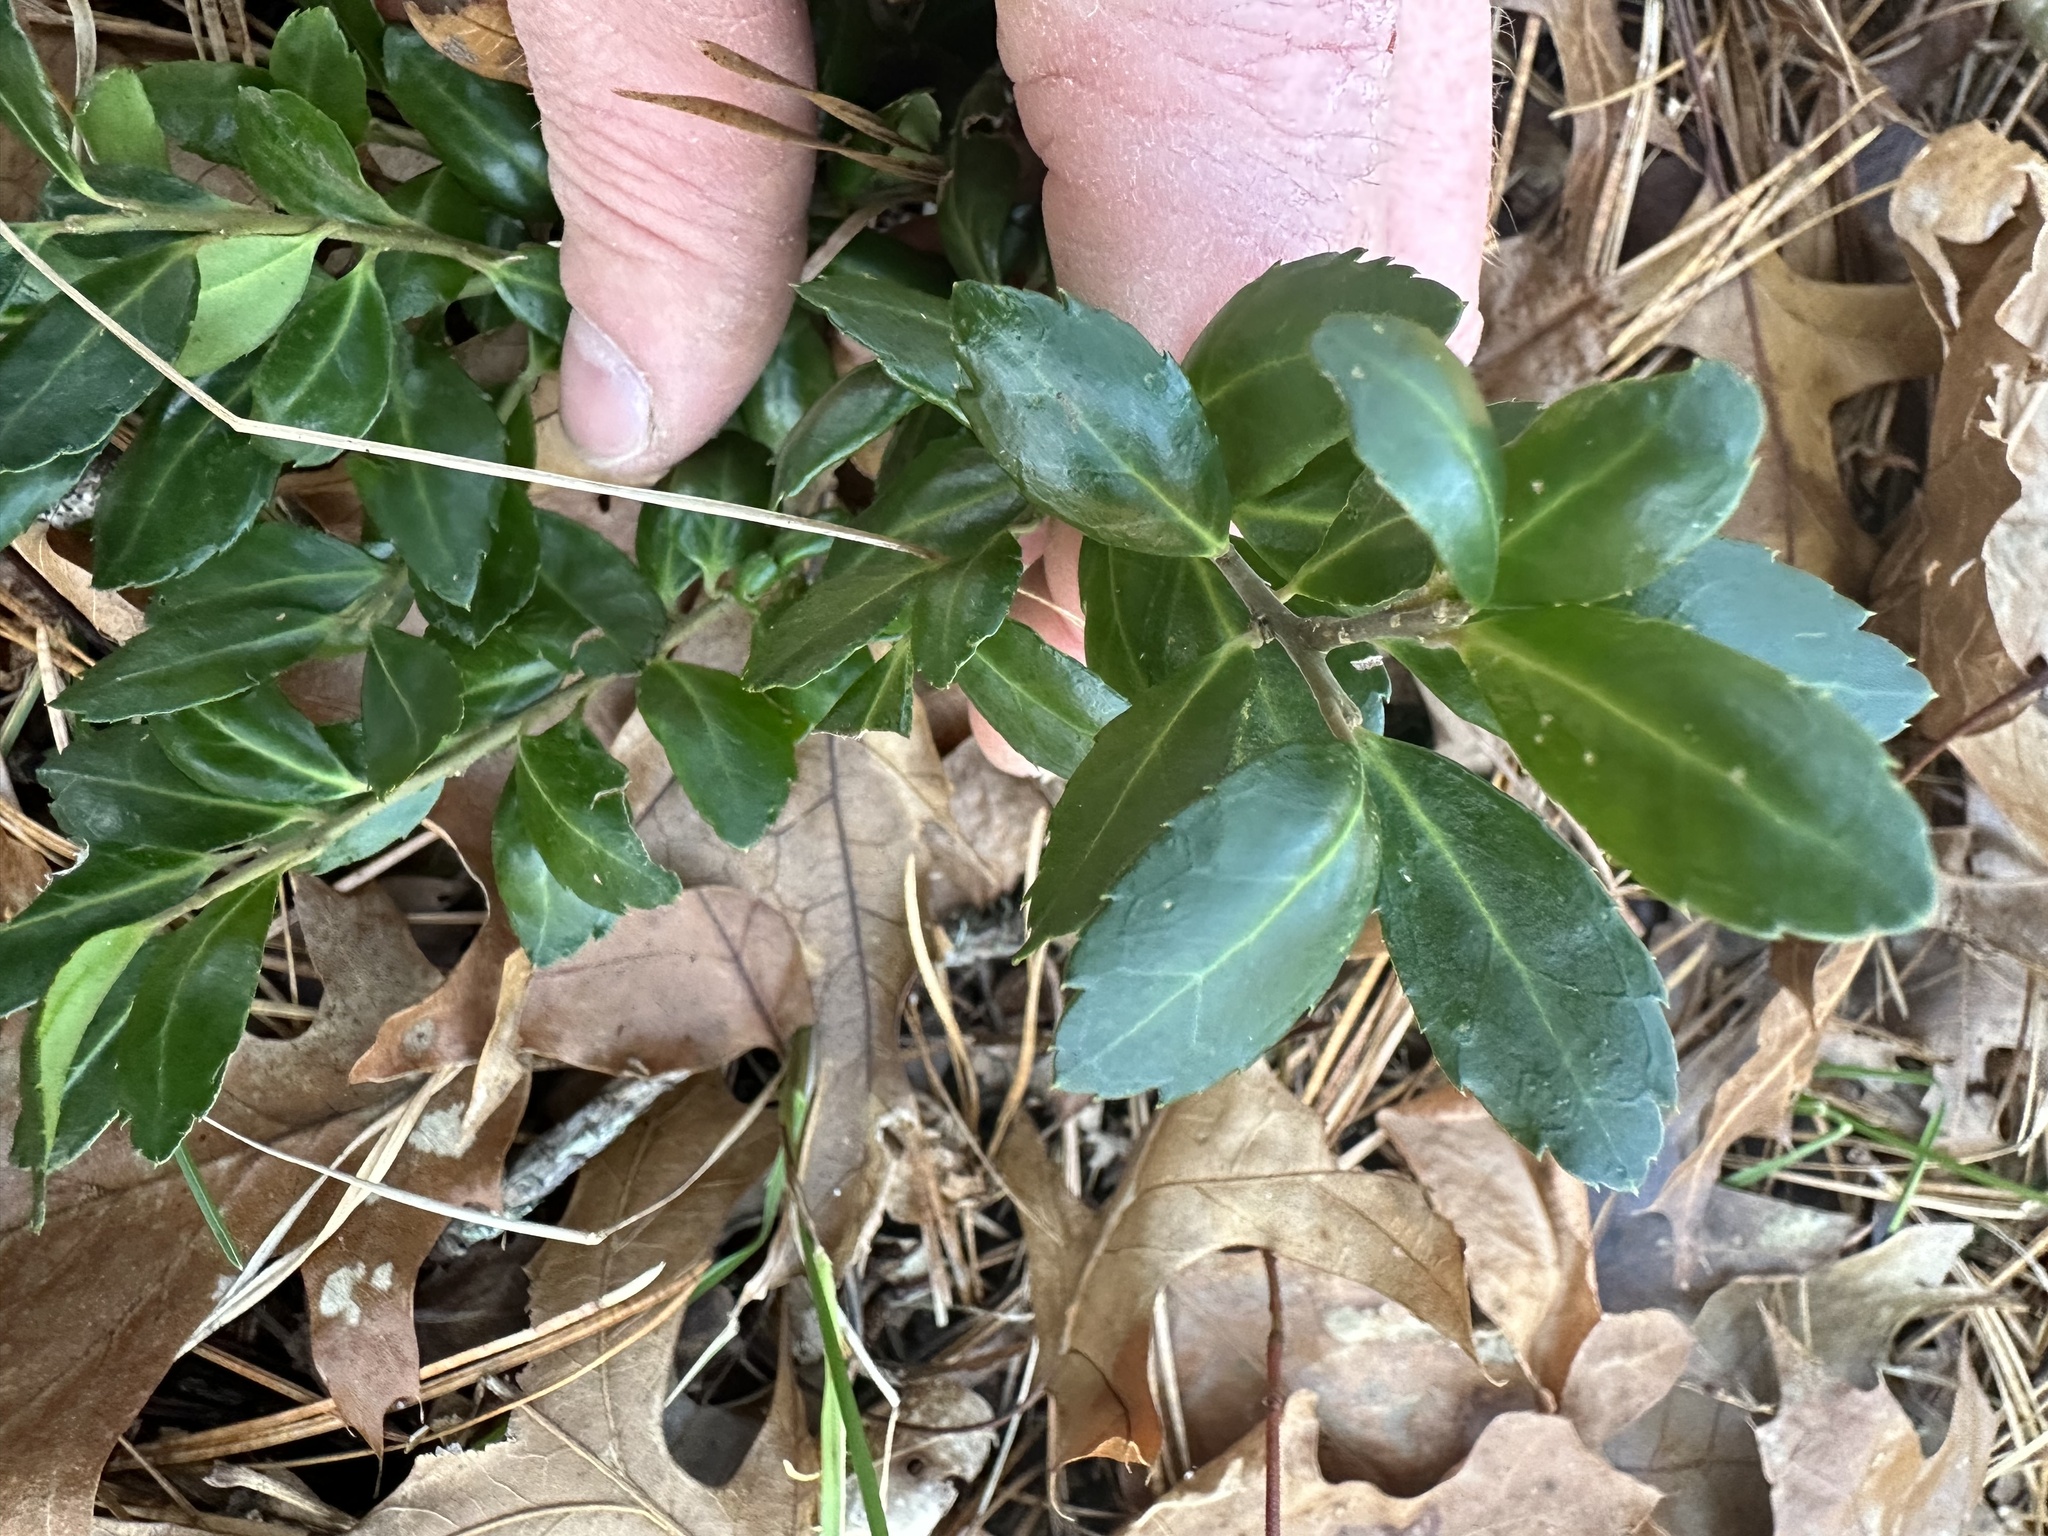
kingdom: Plantae
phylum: Tracheophyta
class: Magnoliopsida
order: Aquifoliales
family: Aquifoliaceae
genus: Ilex
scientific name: Ilex crenata
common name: Japanese holly
